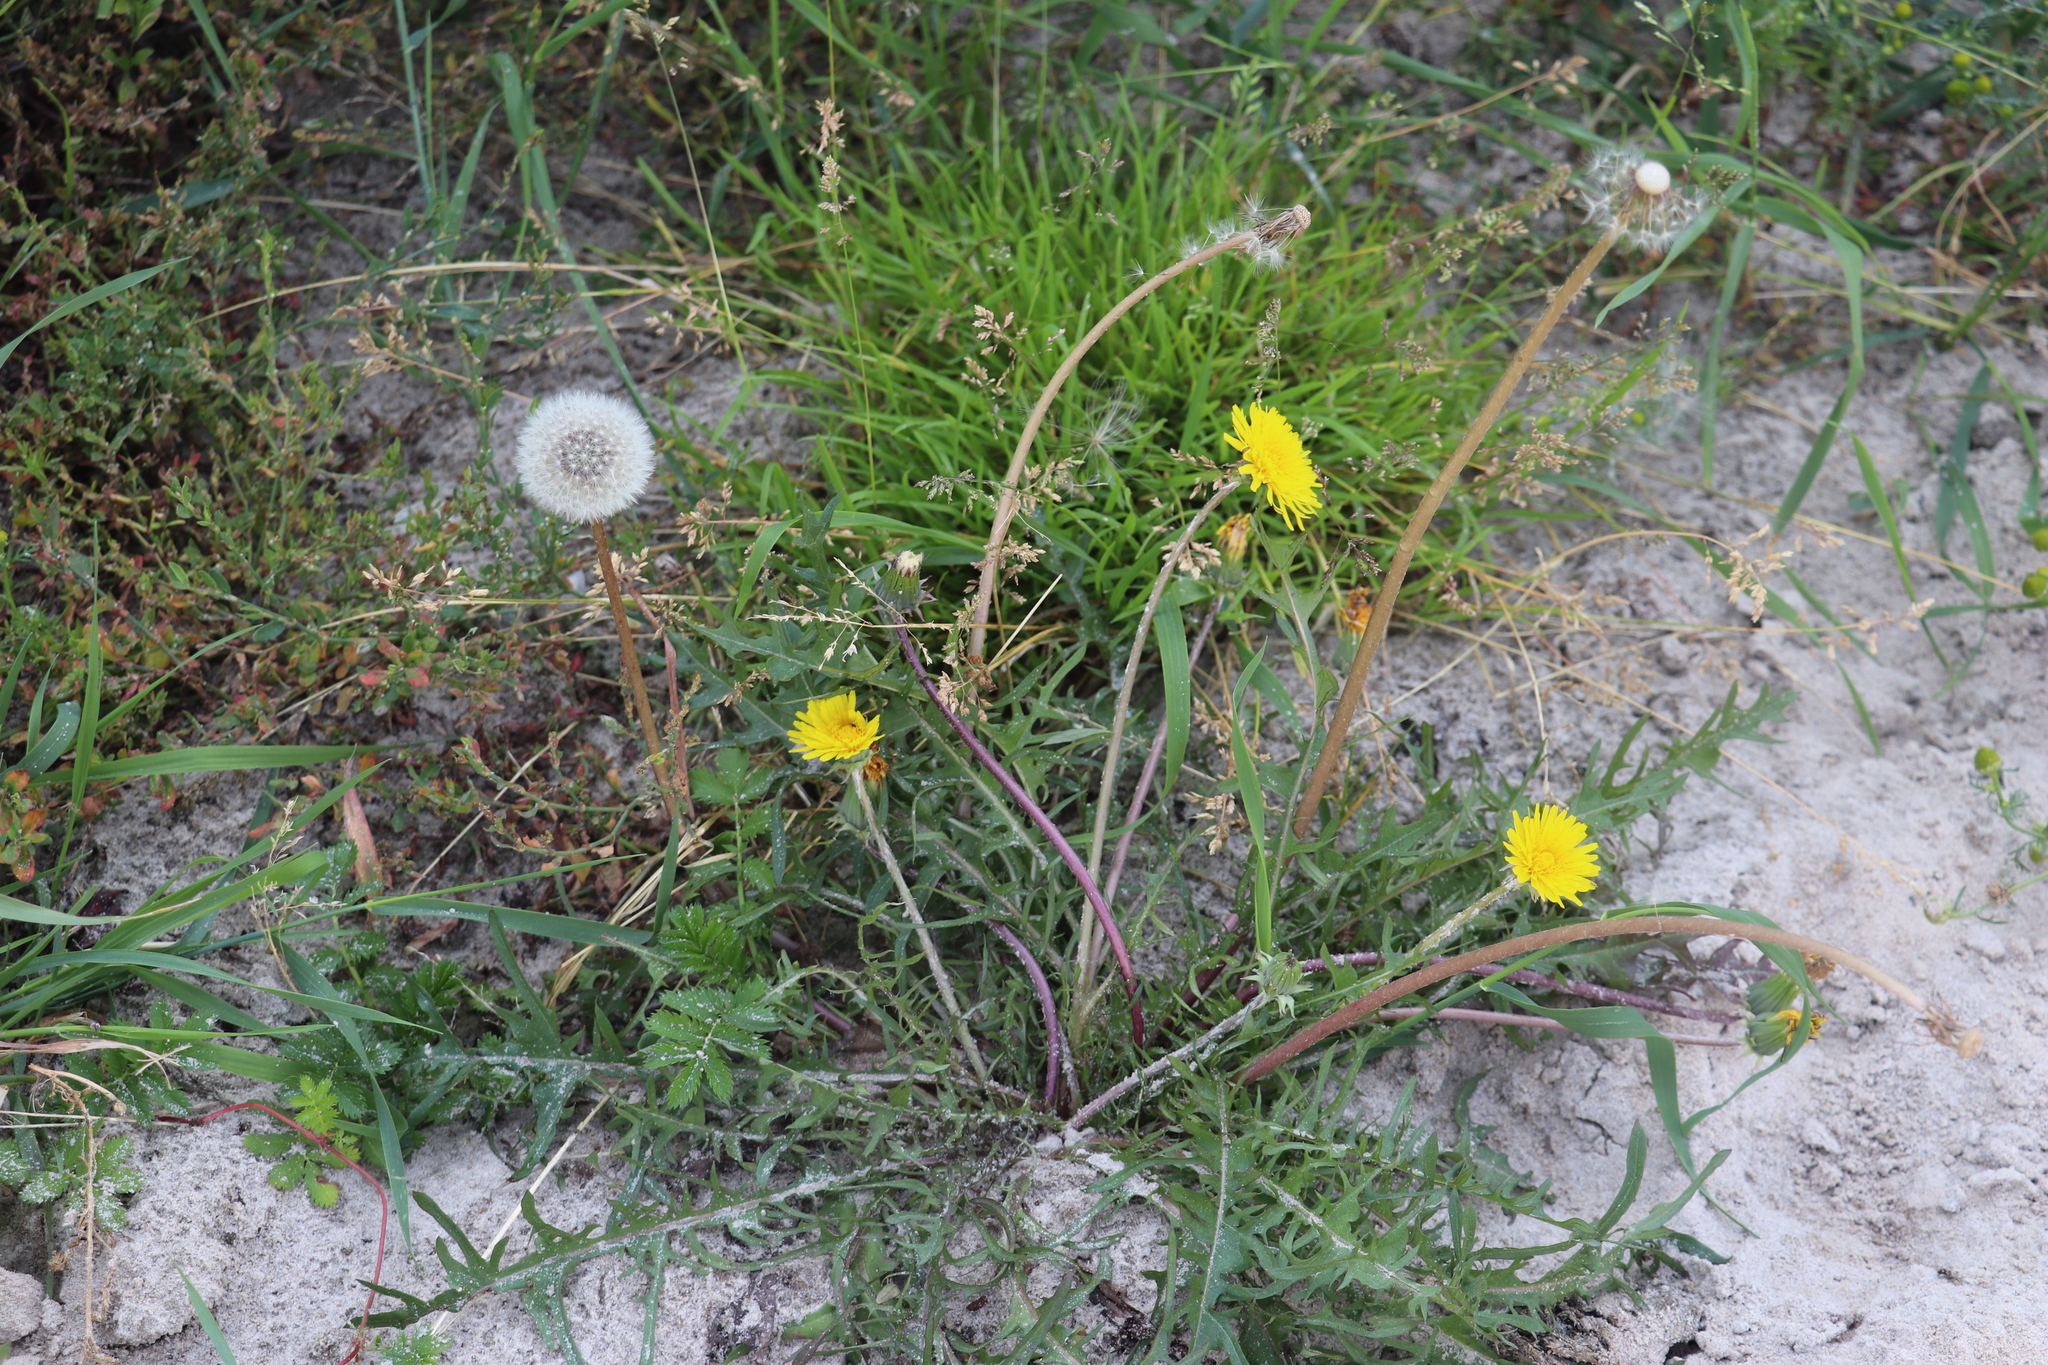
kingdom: Plantae
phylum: Tracheophyta
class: Magnoliopsida
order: Asterales
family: Asteraceae
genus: Taraxacum
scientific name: Taraxacum officinale
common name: Common dandelion
